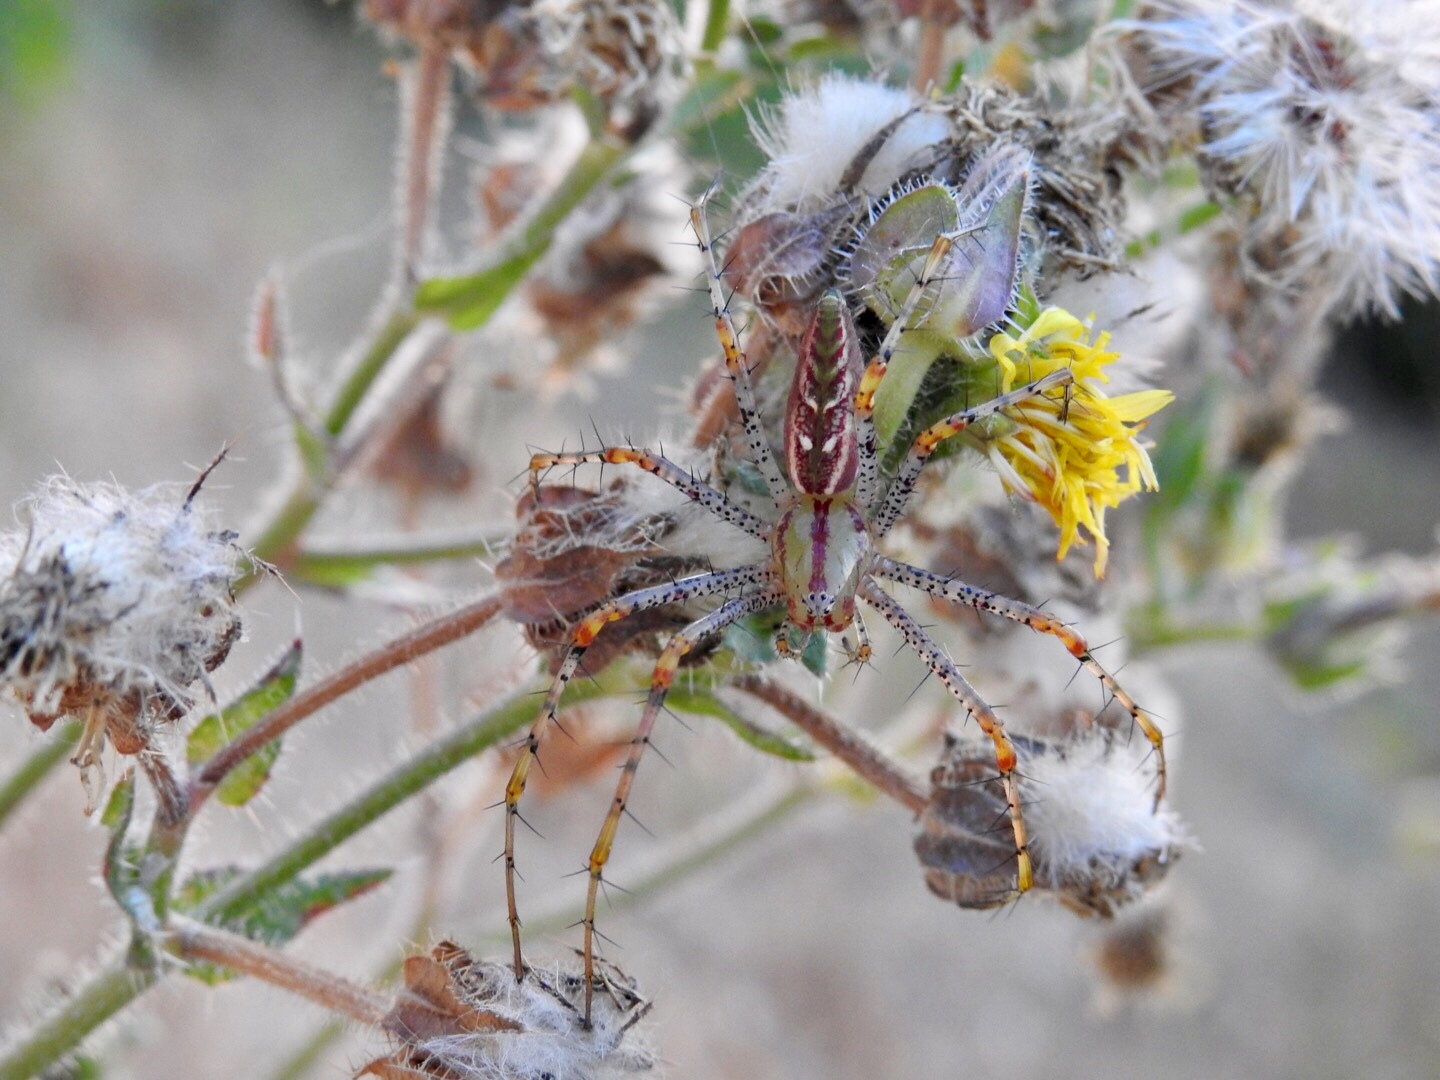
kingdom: Animalia
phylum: Arthropoda
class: Arachnida
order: Araneae
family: Oxyopidae
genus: Peucetia
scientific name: Peucetia viridans
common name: Lynx spiders
